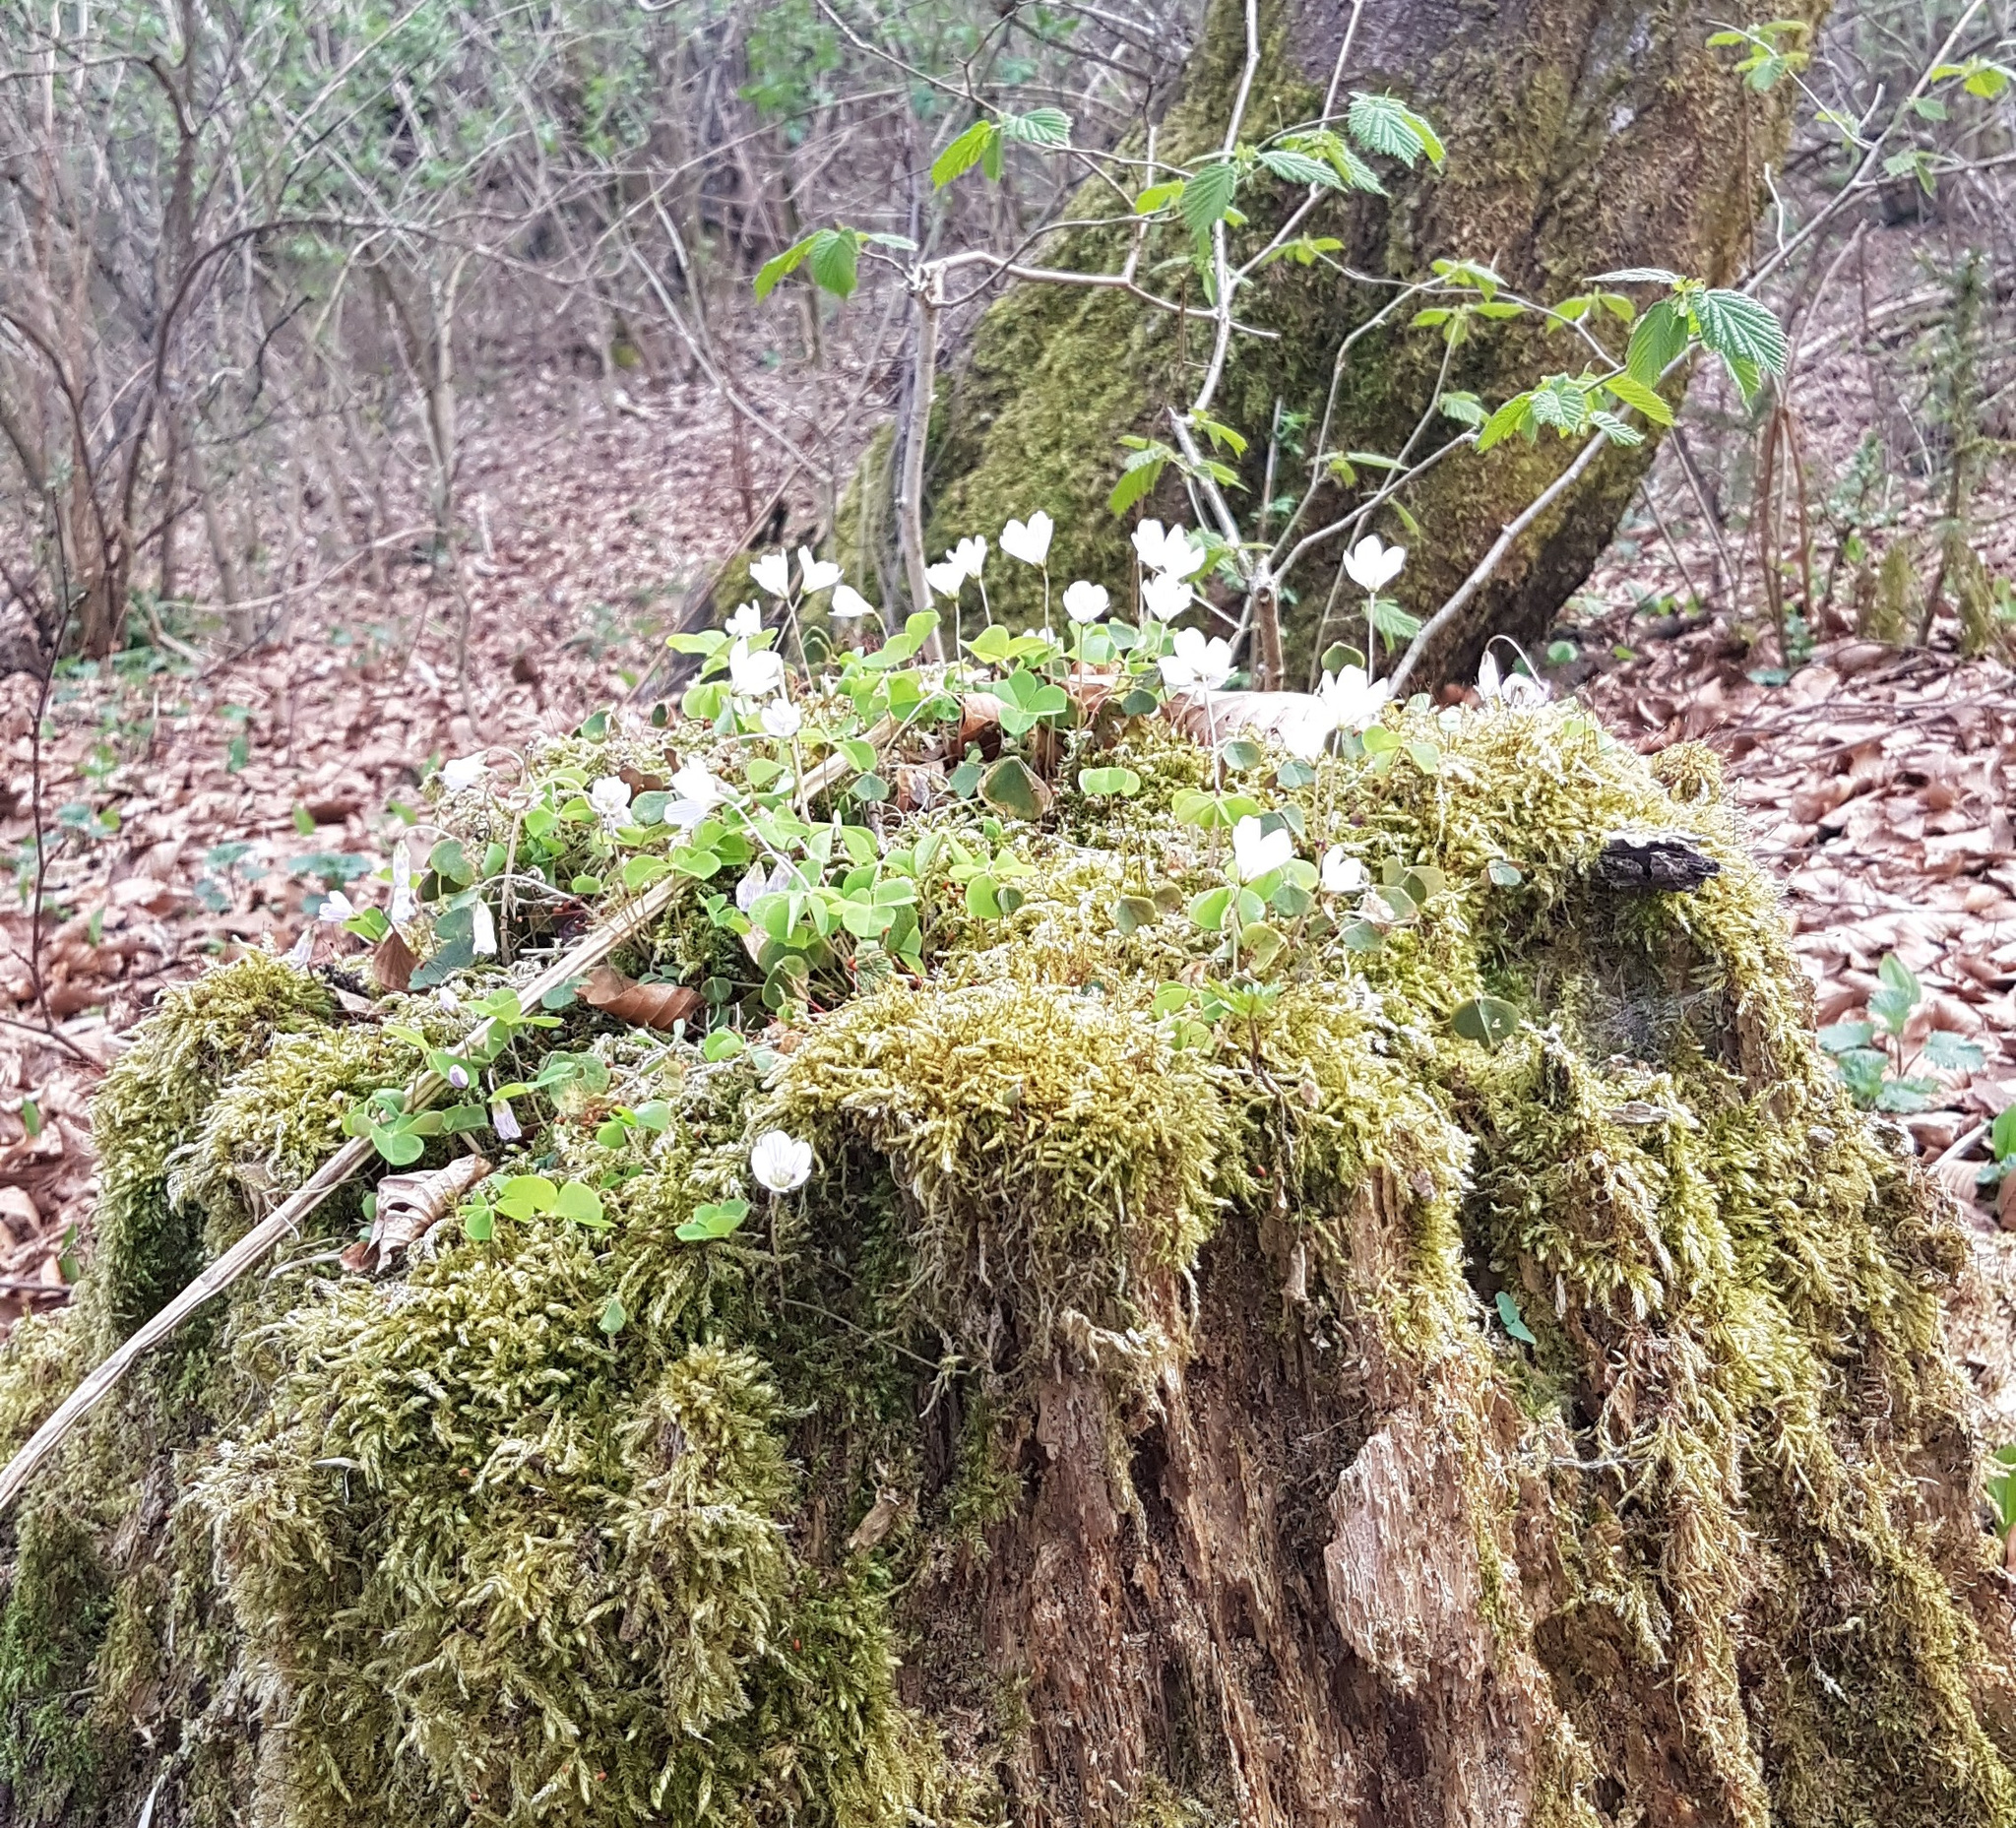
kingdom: Plantae
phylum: Tracheophyta
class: Magnoliopsida
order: Oxalidales
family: Oxalidaceae
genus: Oxalis
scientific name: Oxalis acetosella
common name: Wood-sorrel
